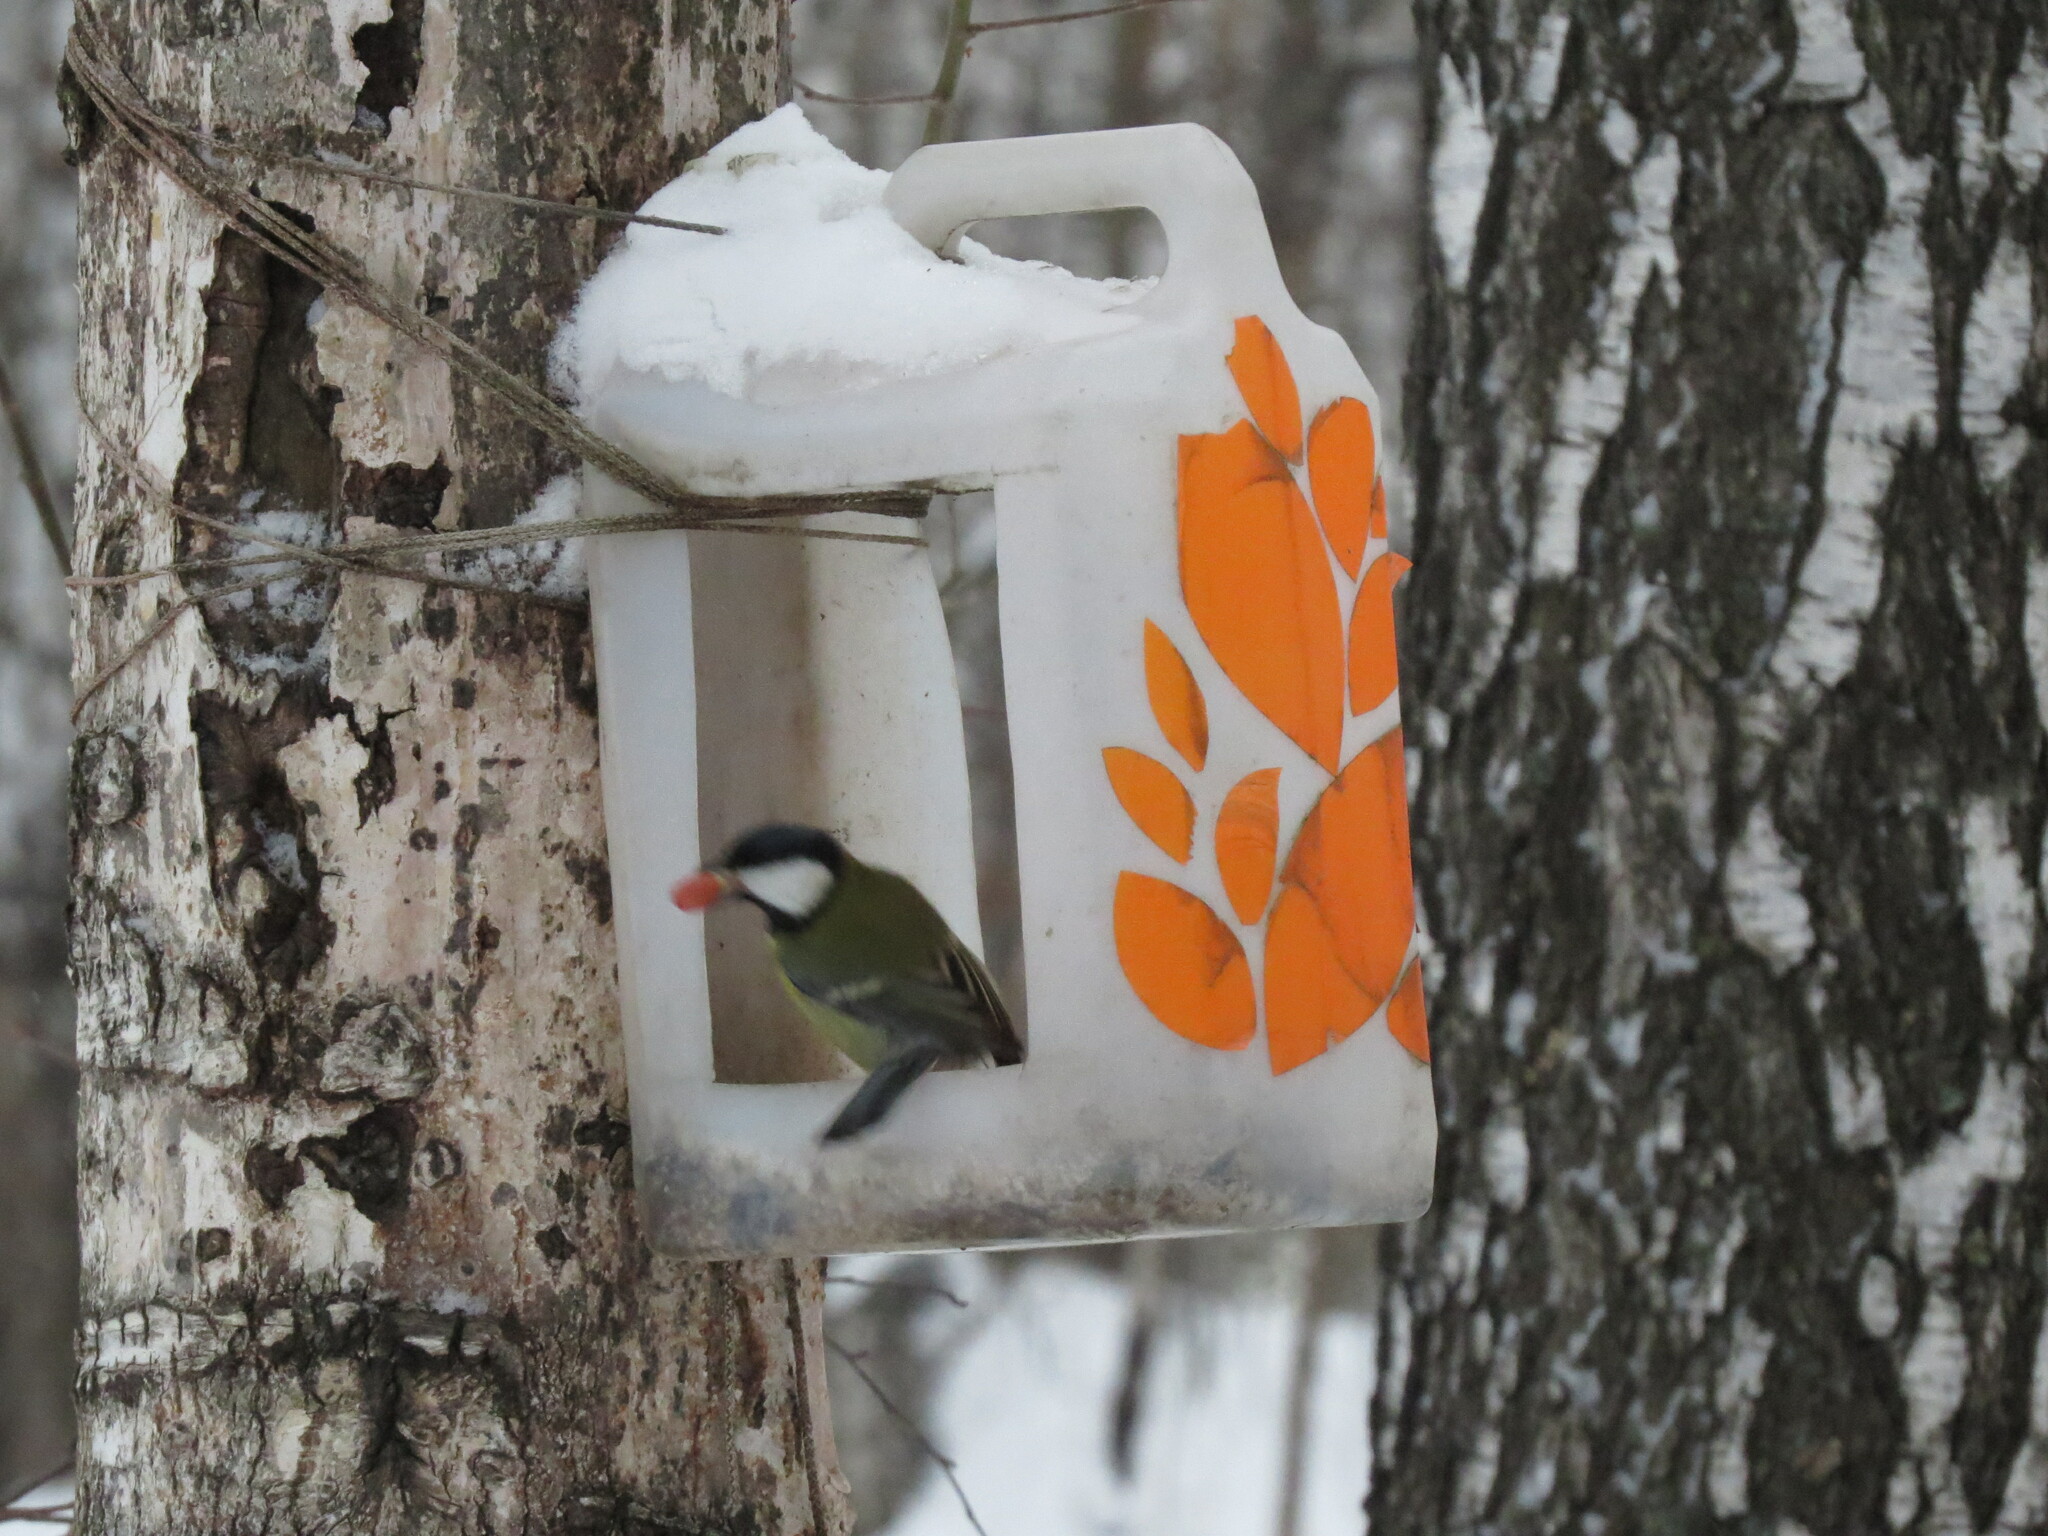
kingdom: Animalia
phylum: Chordata
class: Aves
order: Passeriformes
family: Paridae
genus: Parus
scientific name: Parus major
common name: Great tit
